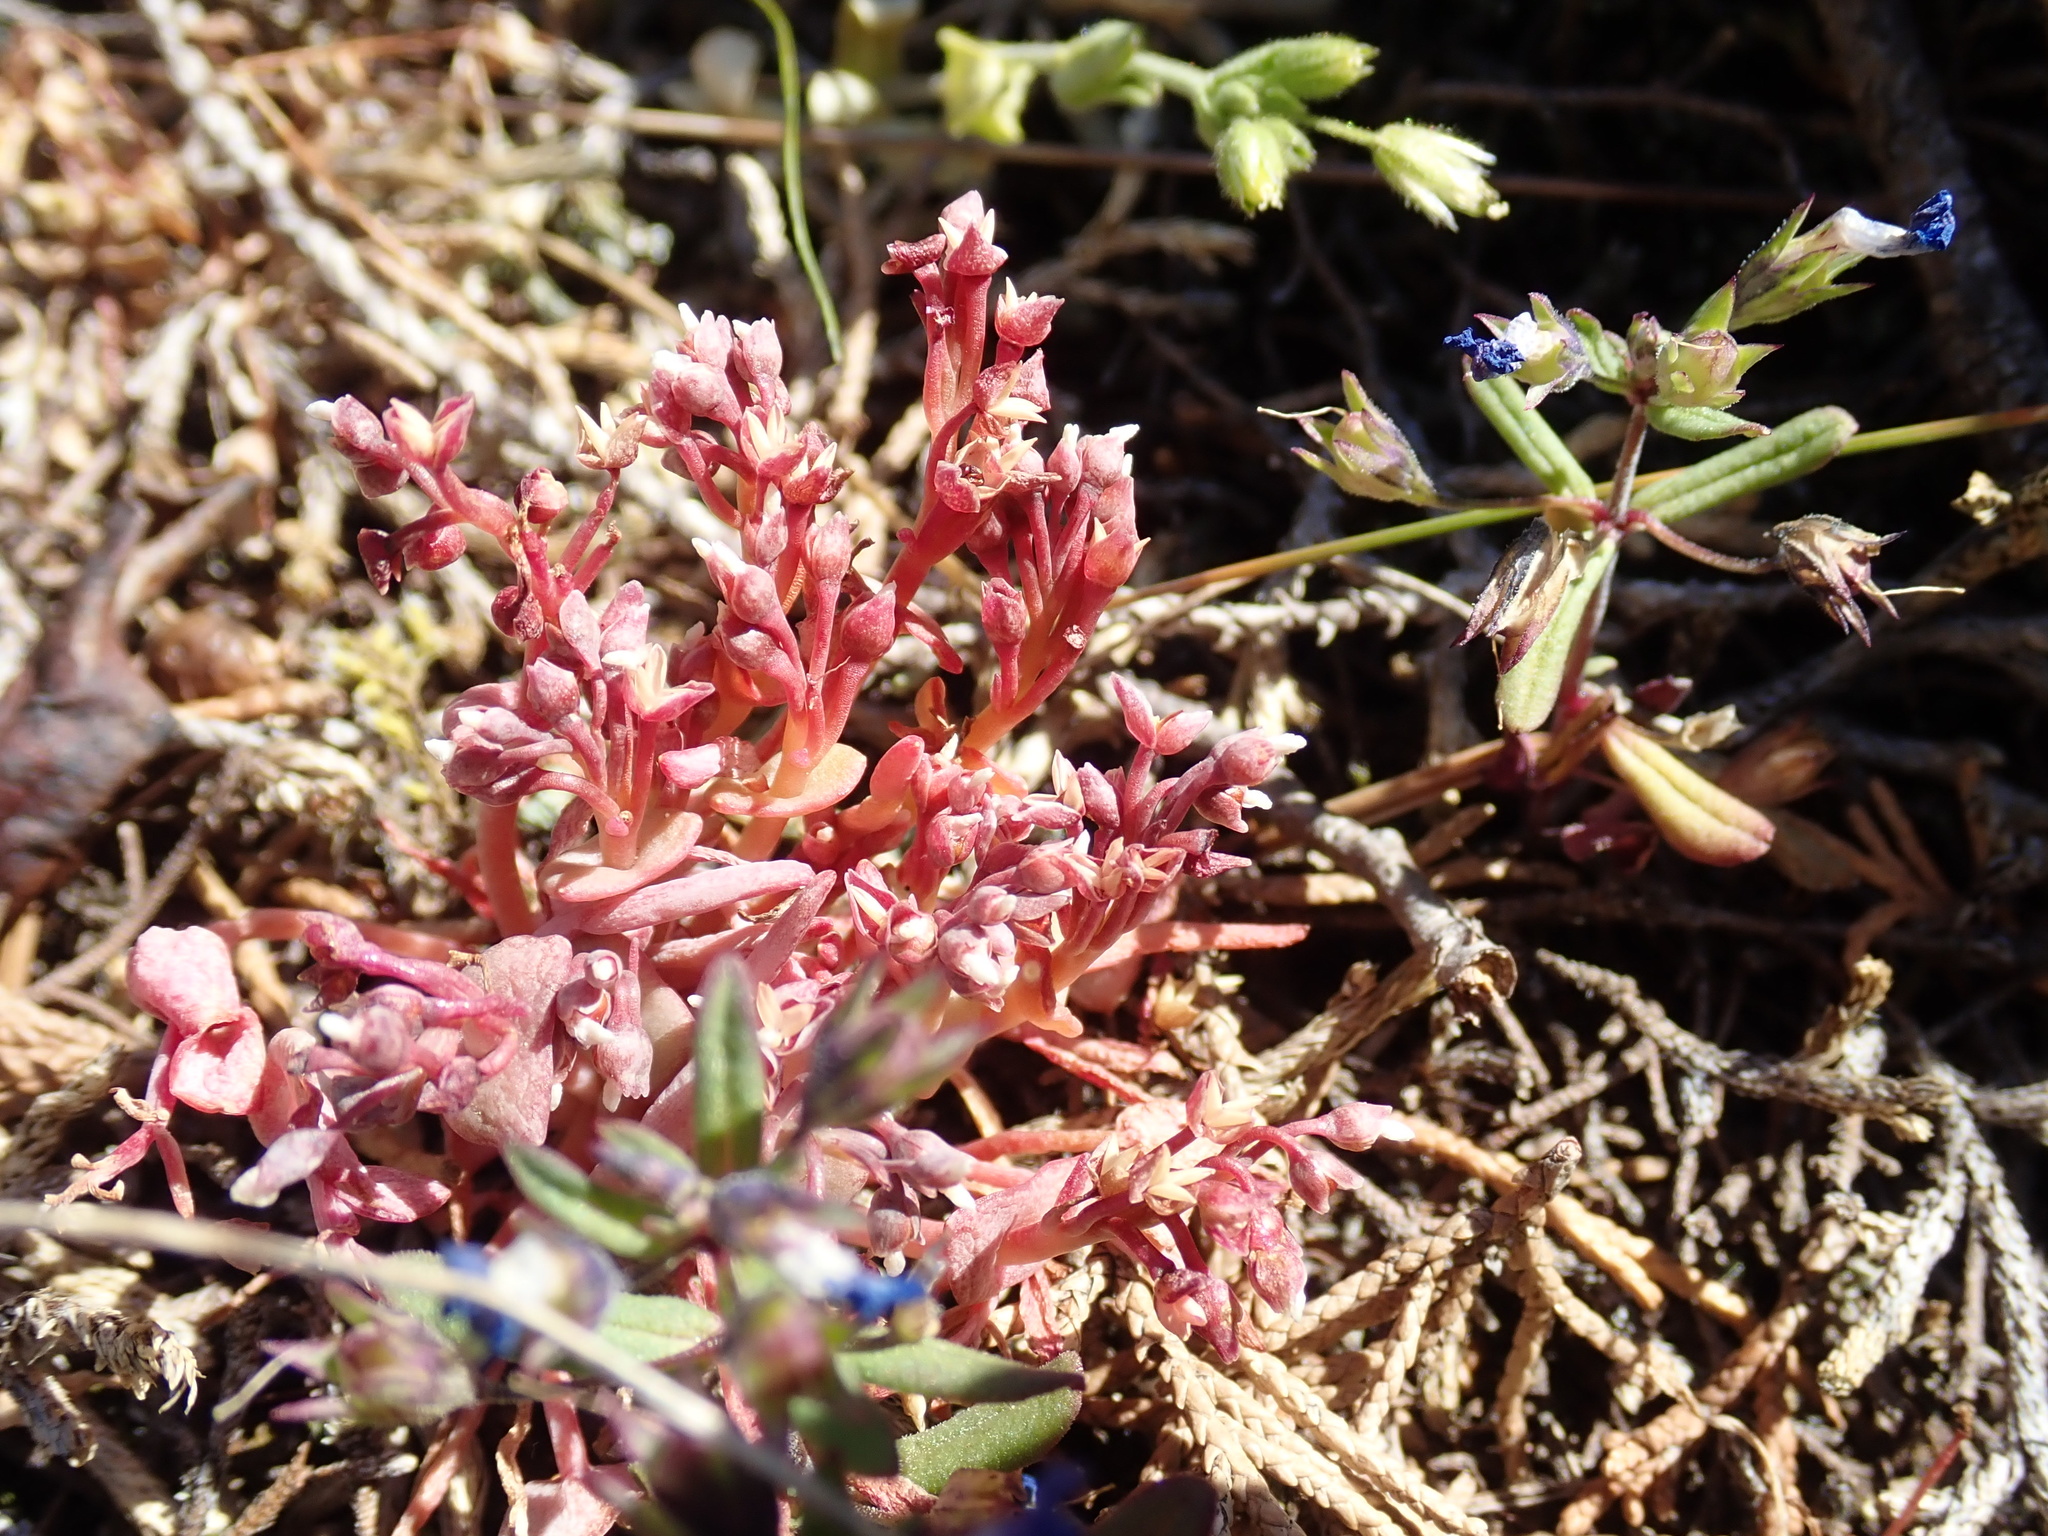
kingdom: Plantae
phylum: Tracheophyta
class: Magnoliopsida
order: Caryophyllales
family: Montiaceae
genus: Claytonia
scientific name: Claytonia exigua
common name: Pale spring beauty
